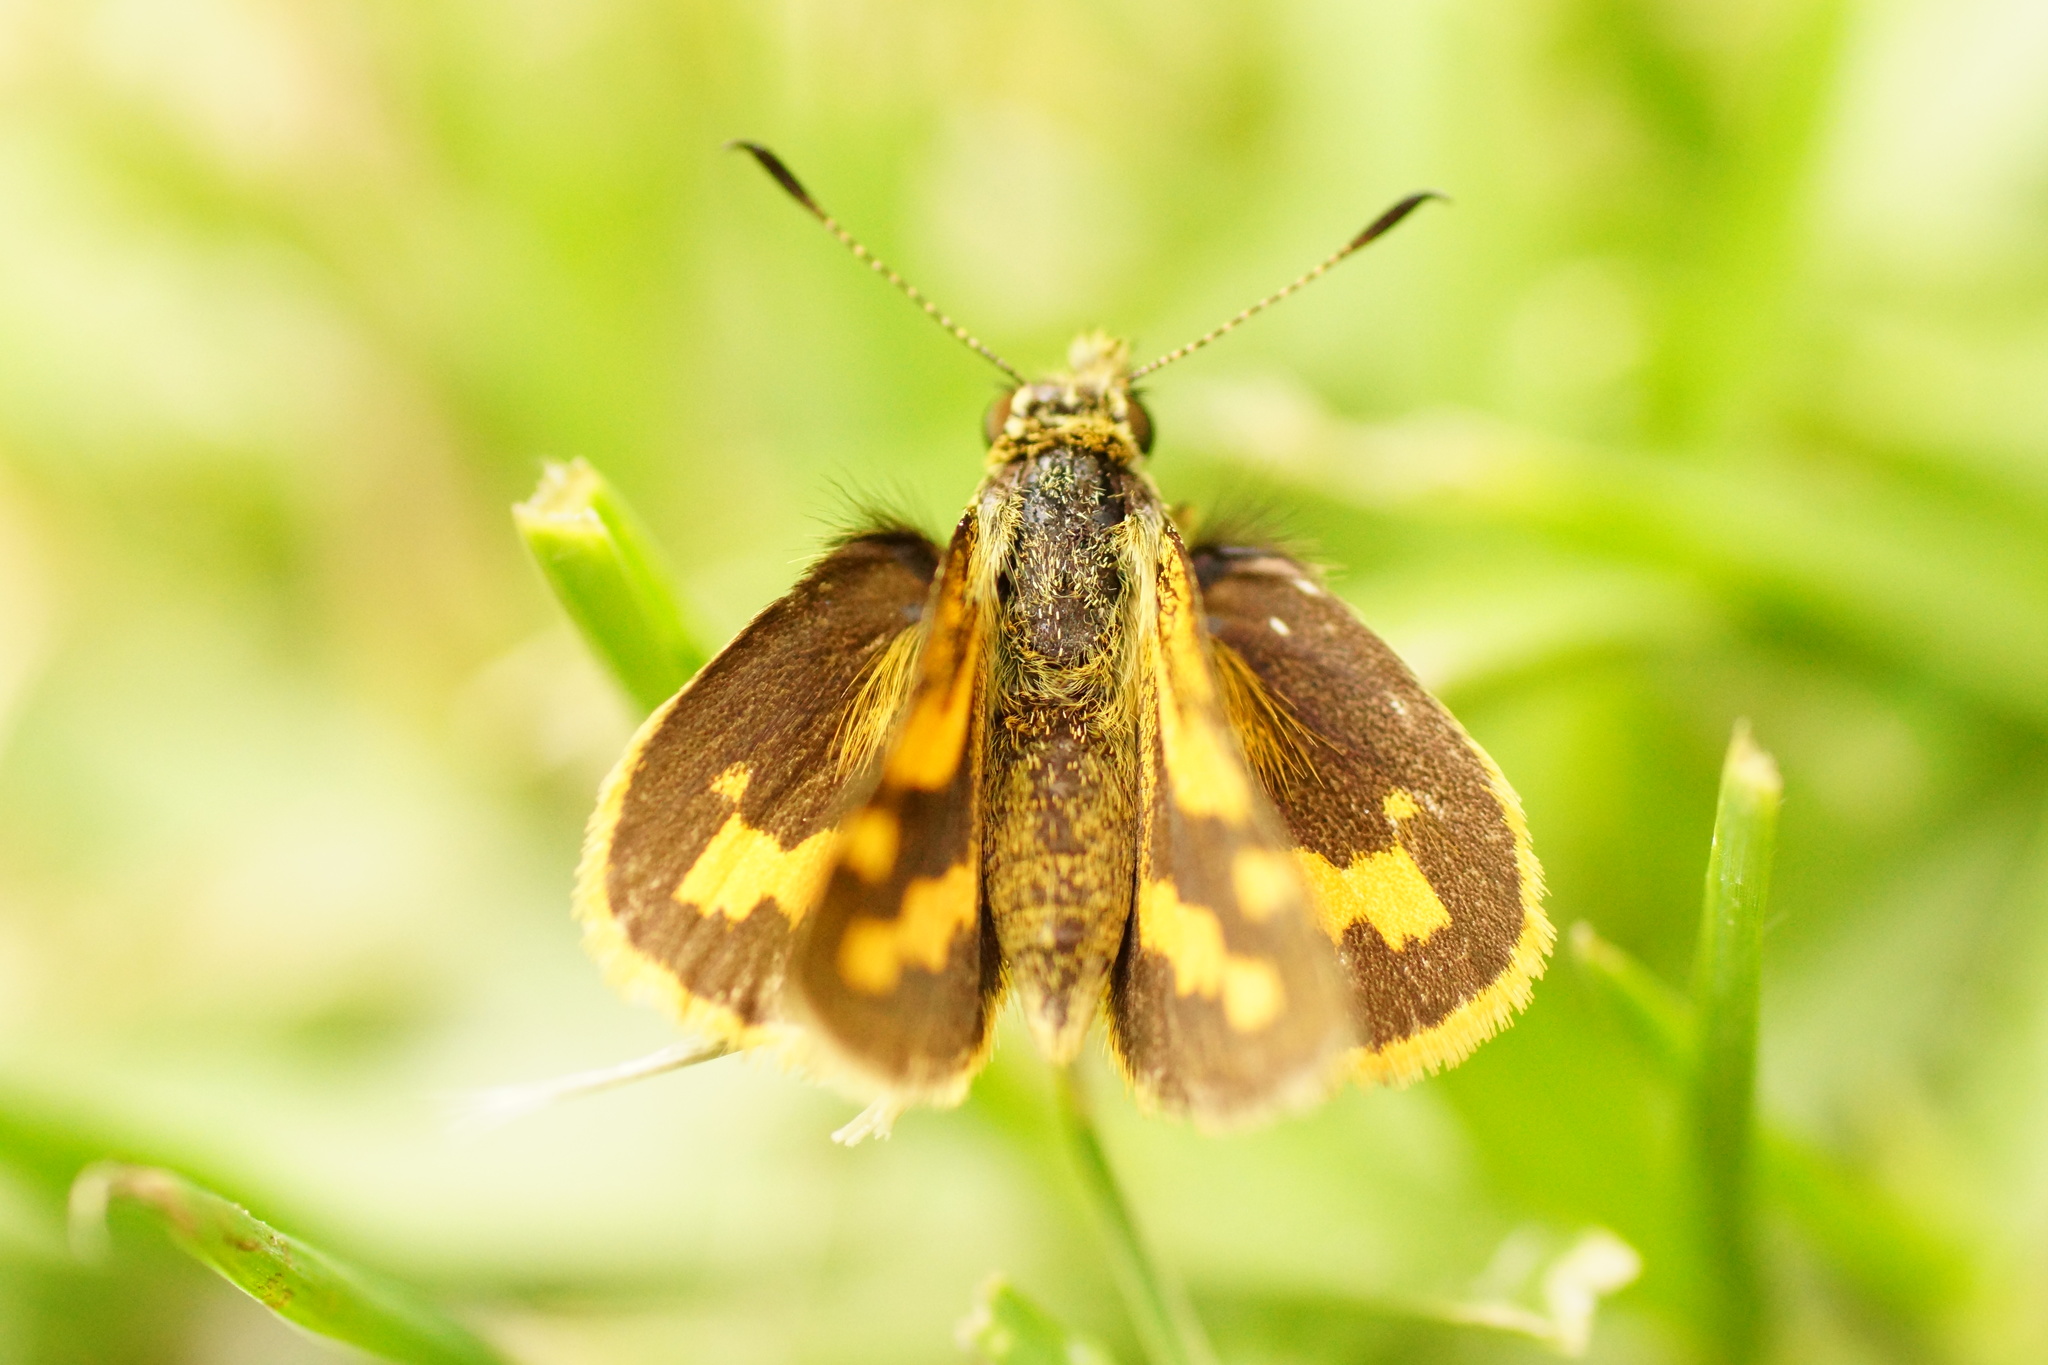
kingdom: Animalia
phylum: Arthropoda
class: Insecta
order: Lepidoptera
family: Hesperiidae
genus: Ocybadistes
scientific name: Ocybadistes walkeri
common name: Yellow-banded dart
